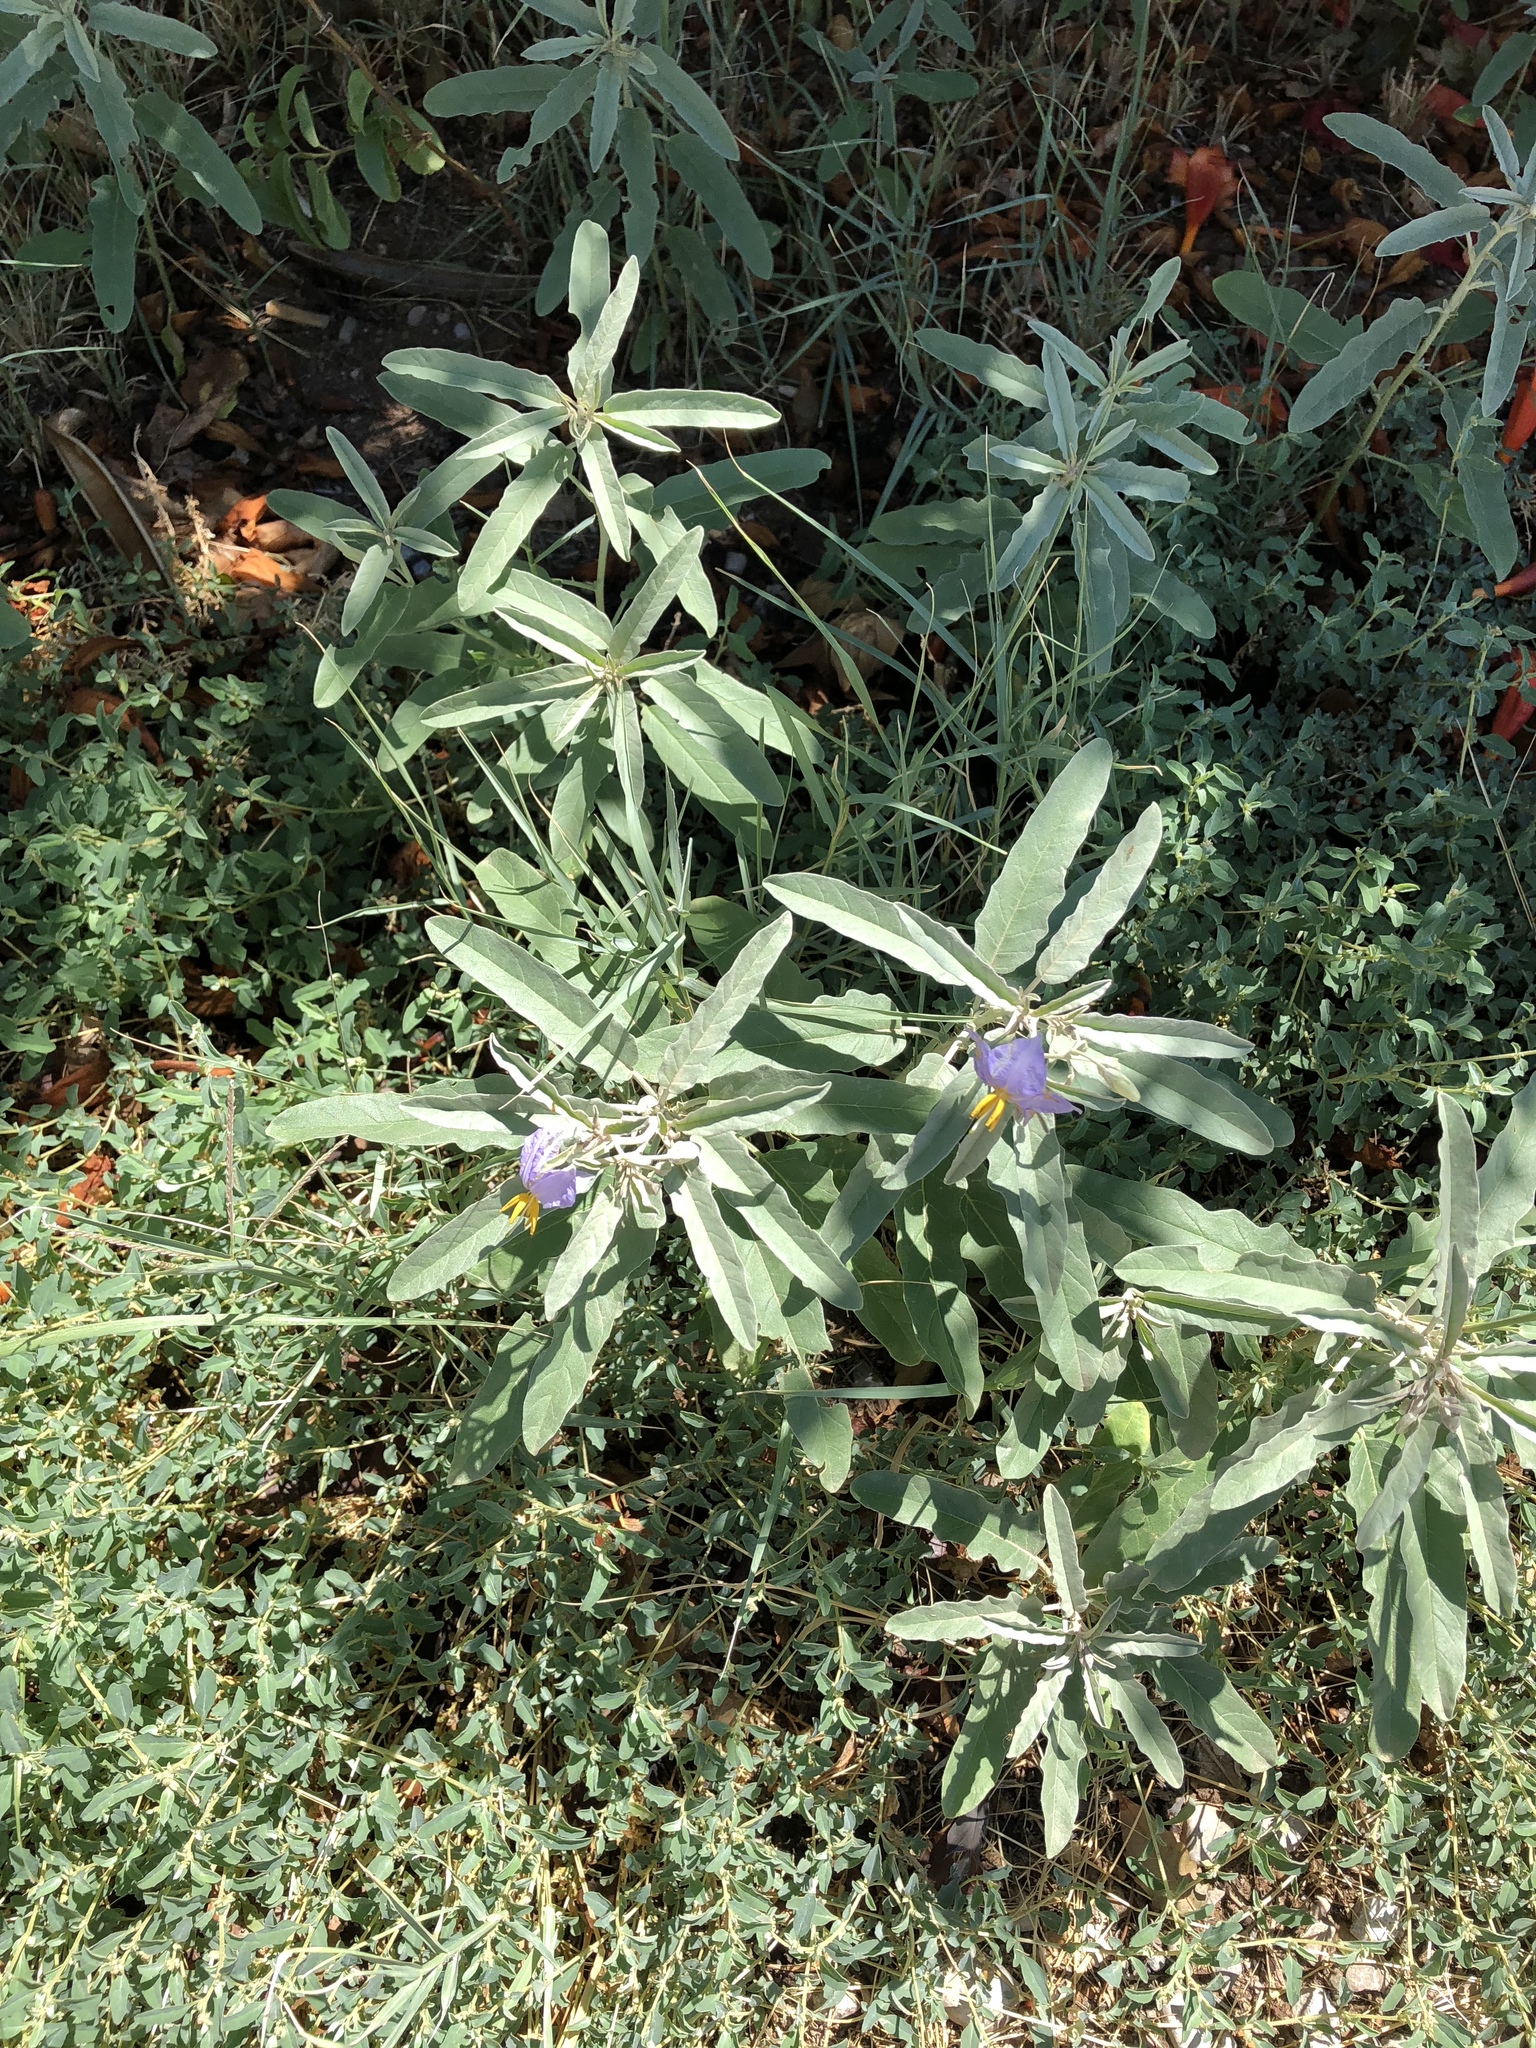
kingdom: Plantae
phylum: Tracheophyta
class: Magnoliopsida
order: Solanales
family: Solanaceae
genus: Solanum
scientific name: Solanum elaeagnifolium
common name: Silverleaf nightshade
